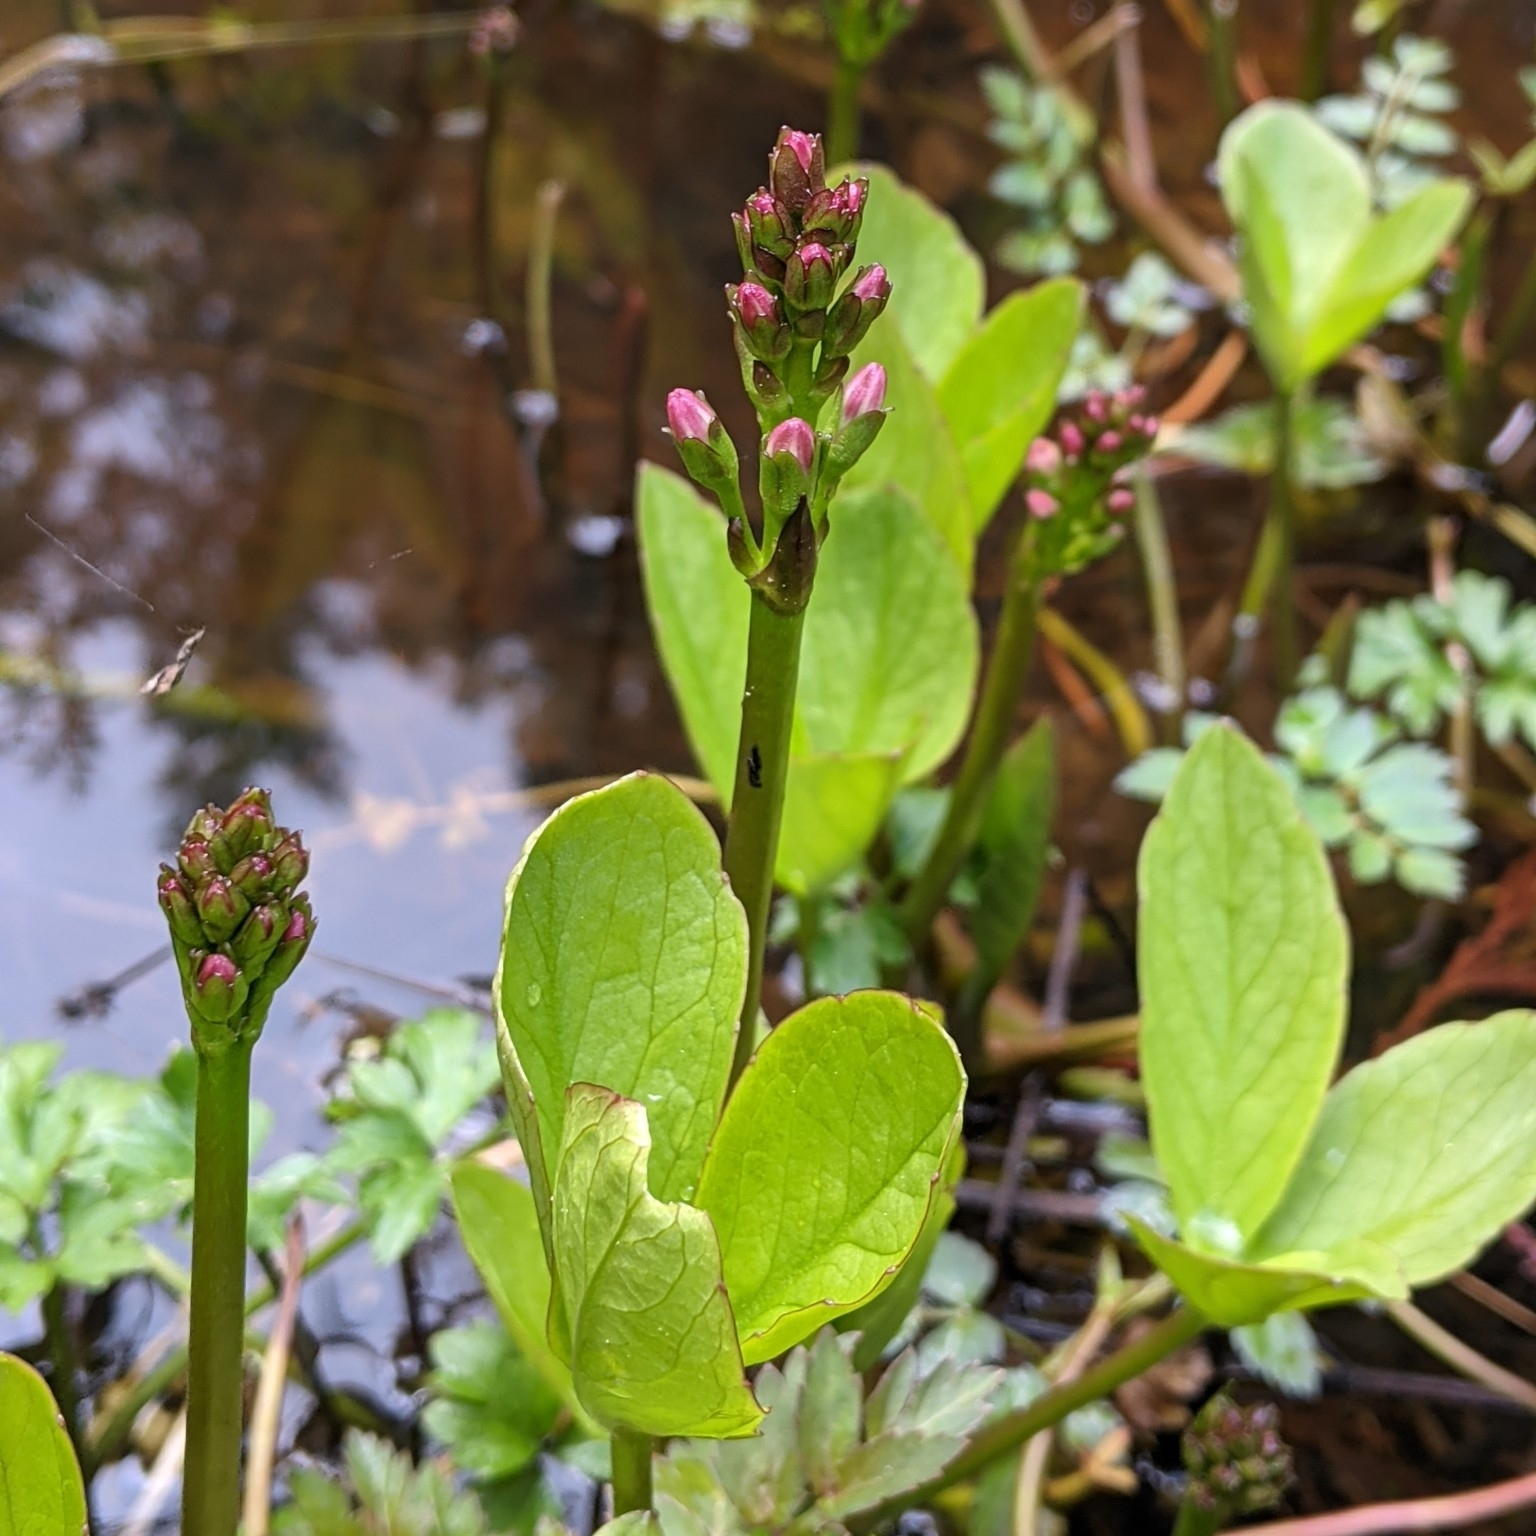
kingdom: Plantae
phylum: Tracheophyta
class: Magnoliopsida
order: Asterales
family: Menyanthaceae
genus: Menyanthes
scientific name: Menyanthes trifoliata
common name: Bogbean
